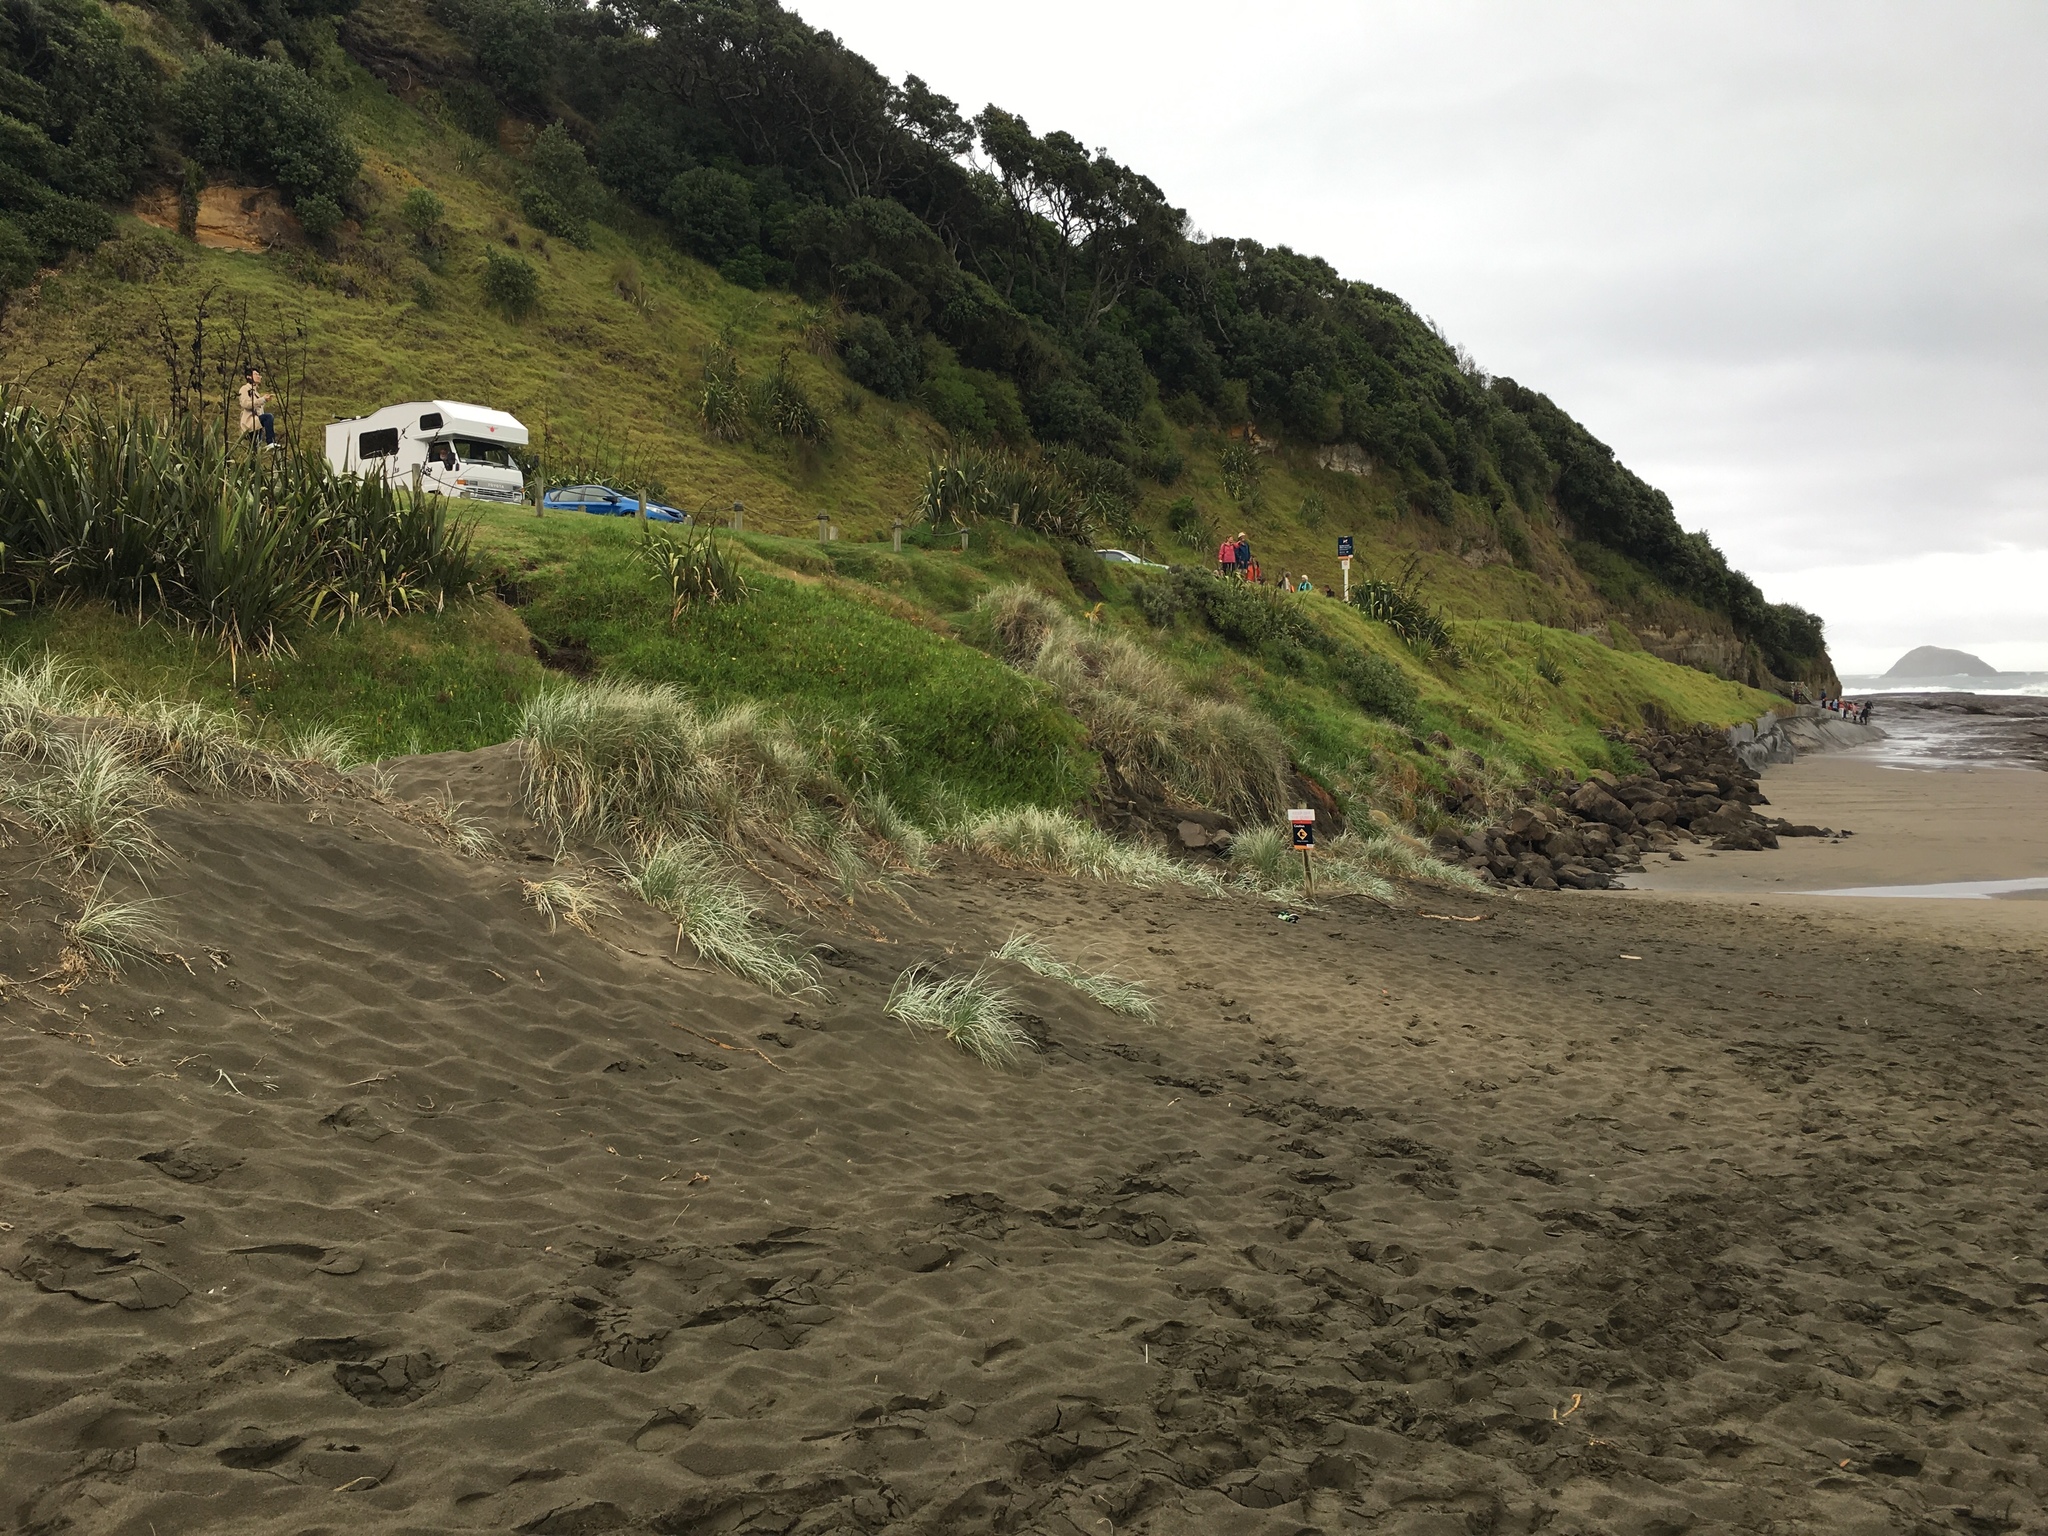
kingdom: Plantae
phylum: Tracheophyta
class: Liliopsida
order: Poales
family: Poaceae
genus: Spinifex
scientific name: Spinifex sericeus
